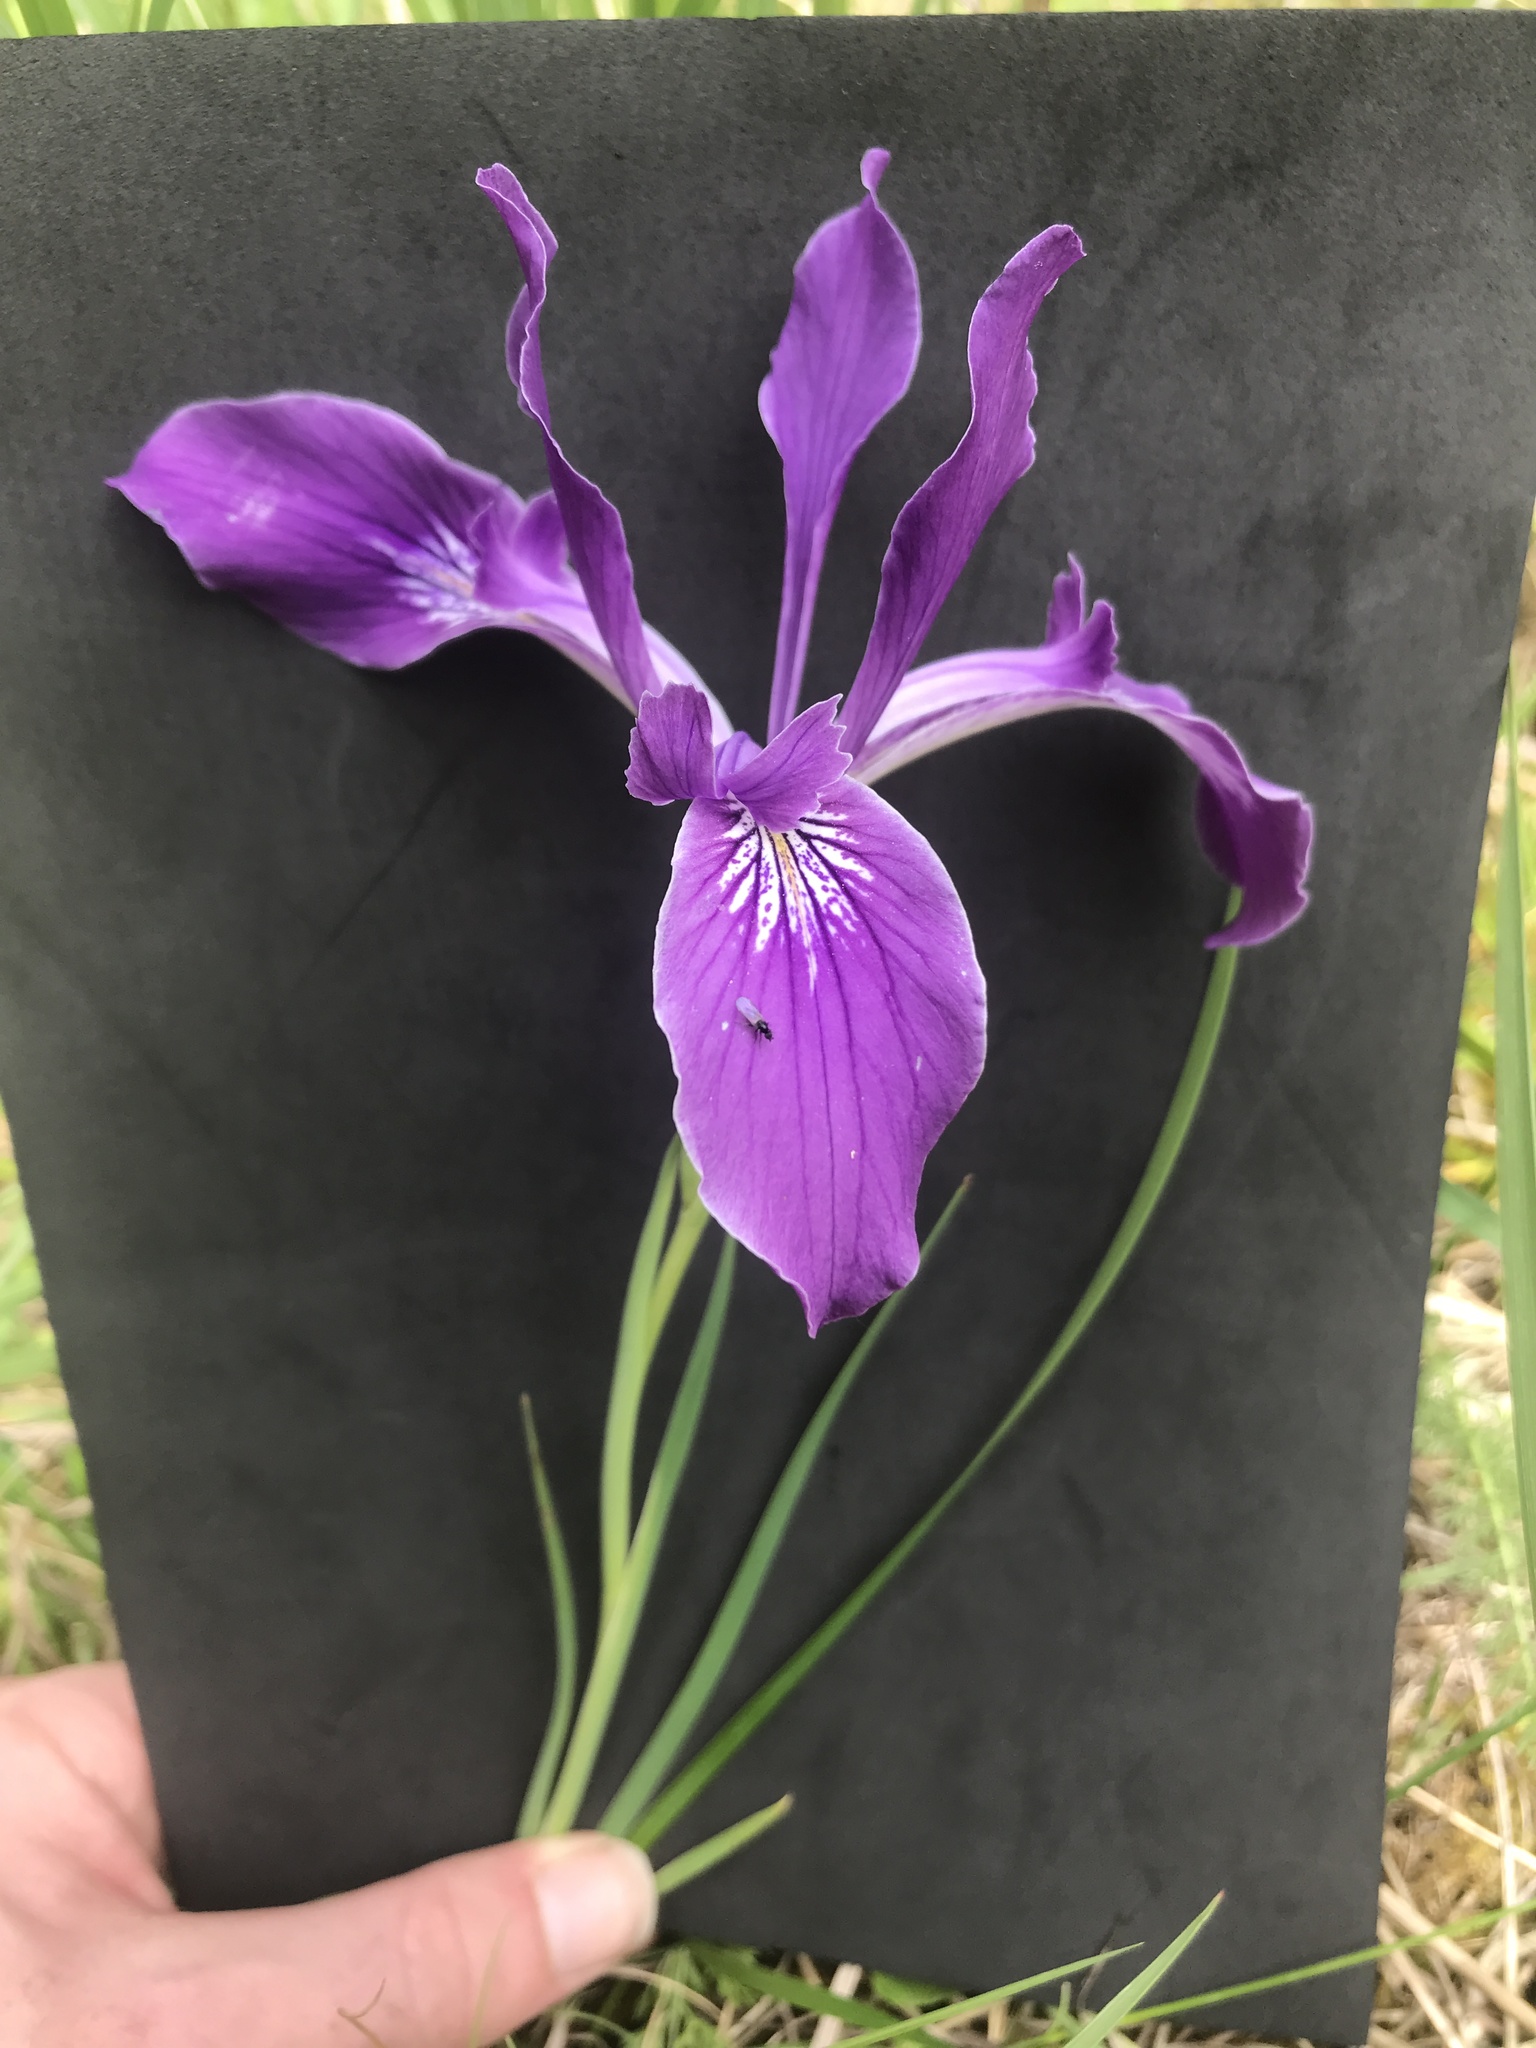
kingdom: Plantae
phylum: Tracheophyta
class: Liliopsida
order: Asparagales
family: Iridaceae
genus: Iris
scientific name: Iris tenax
